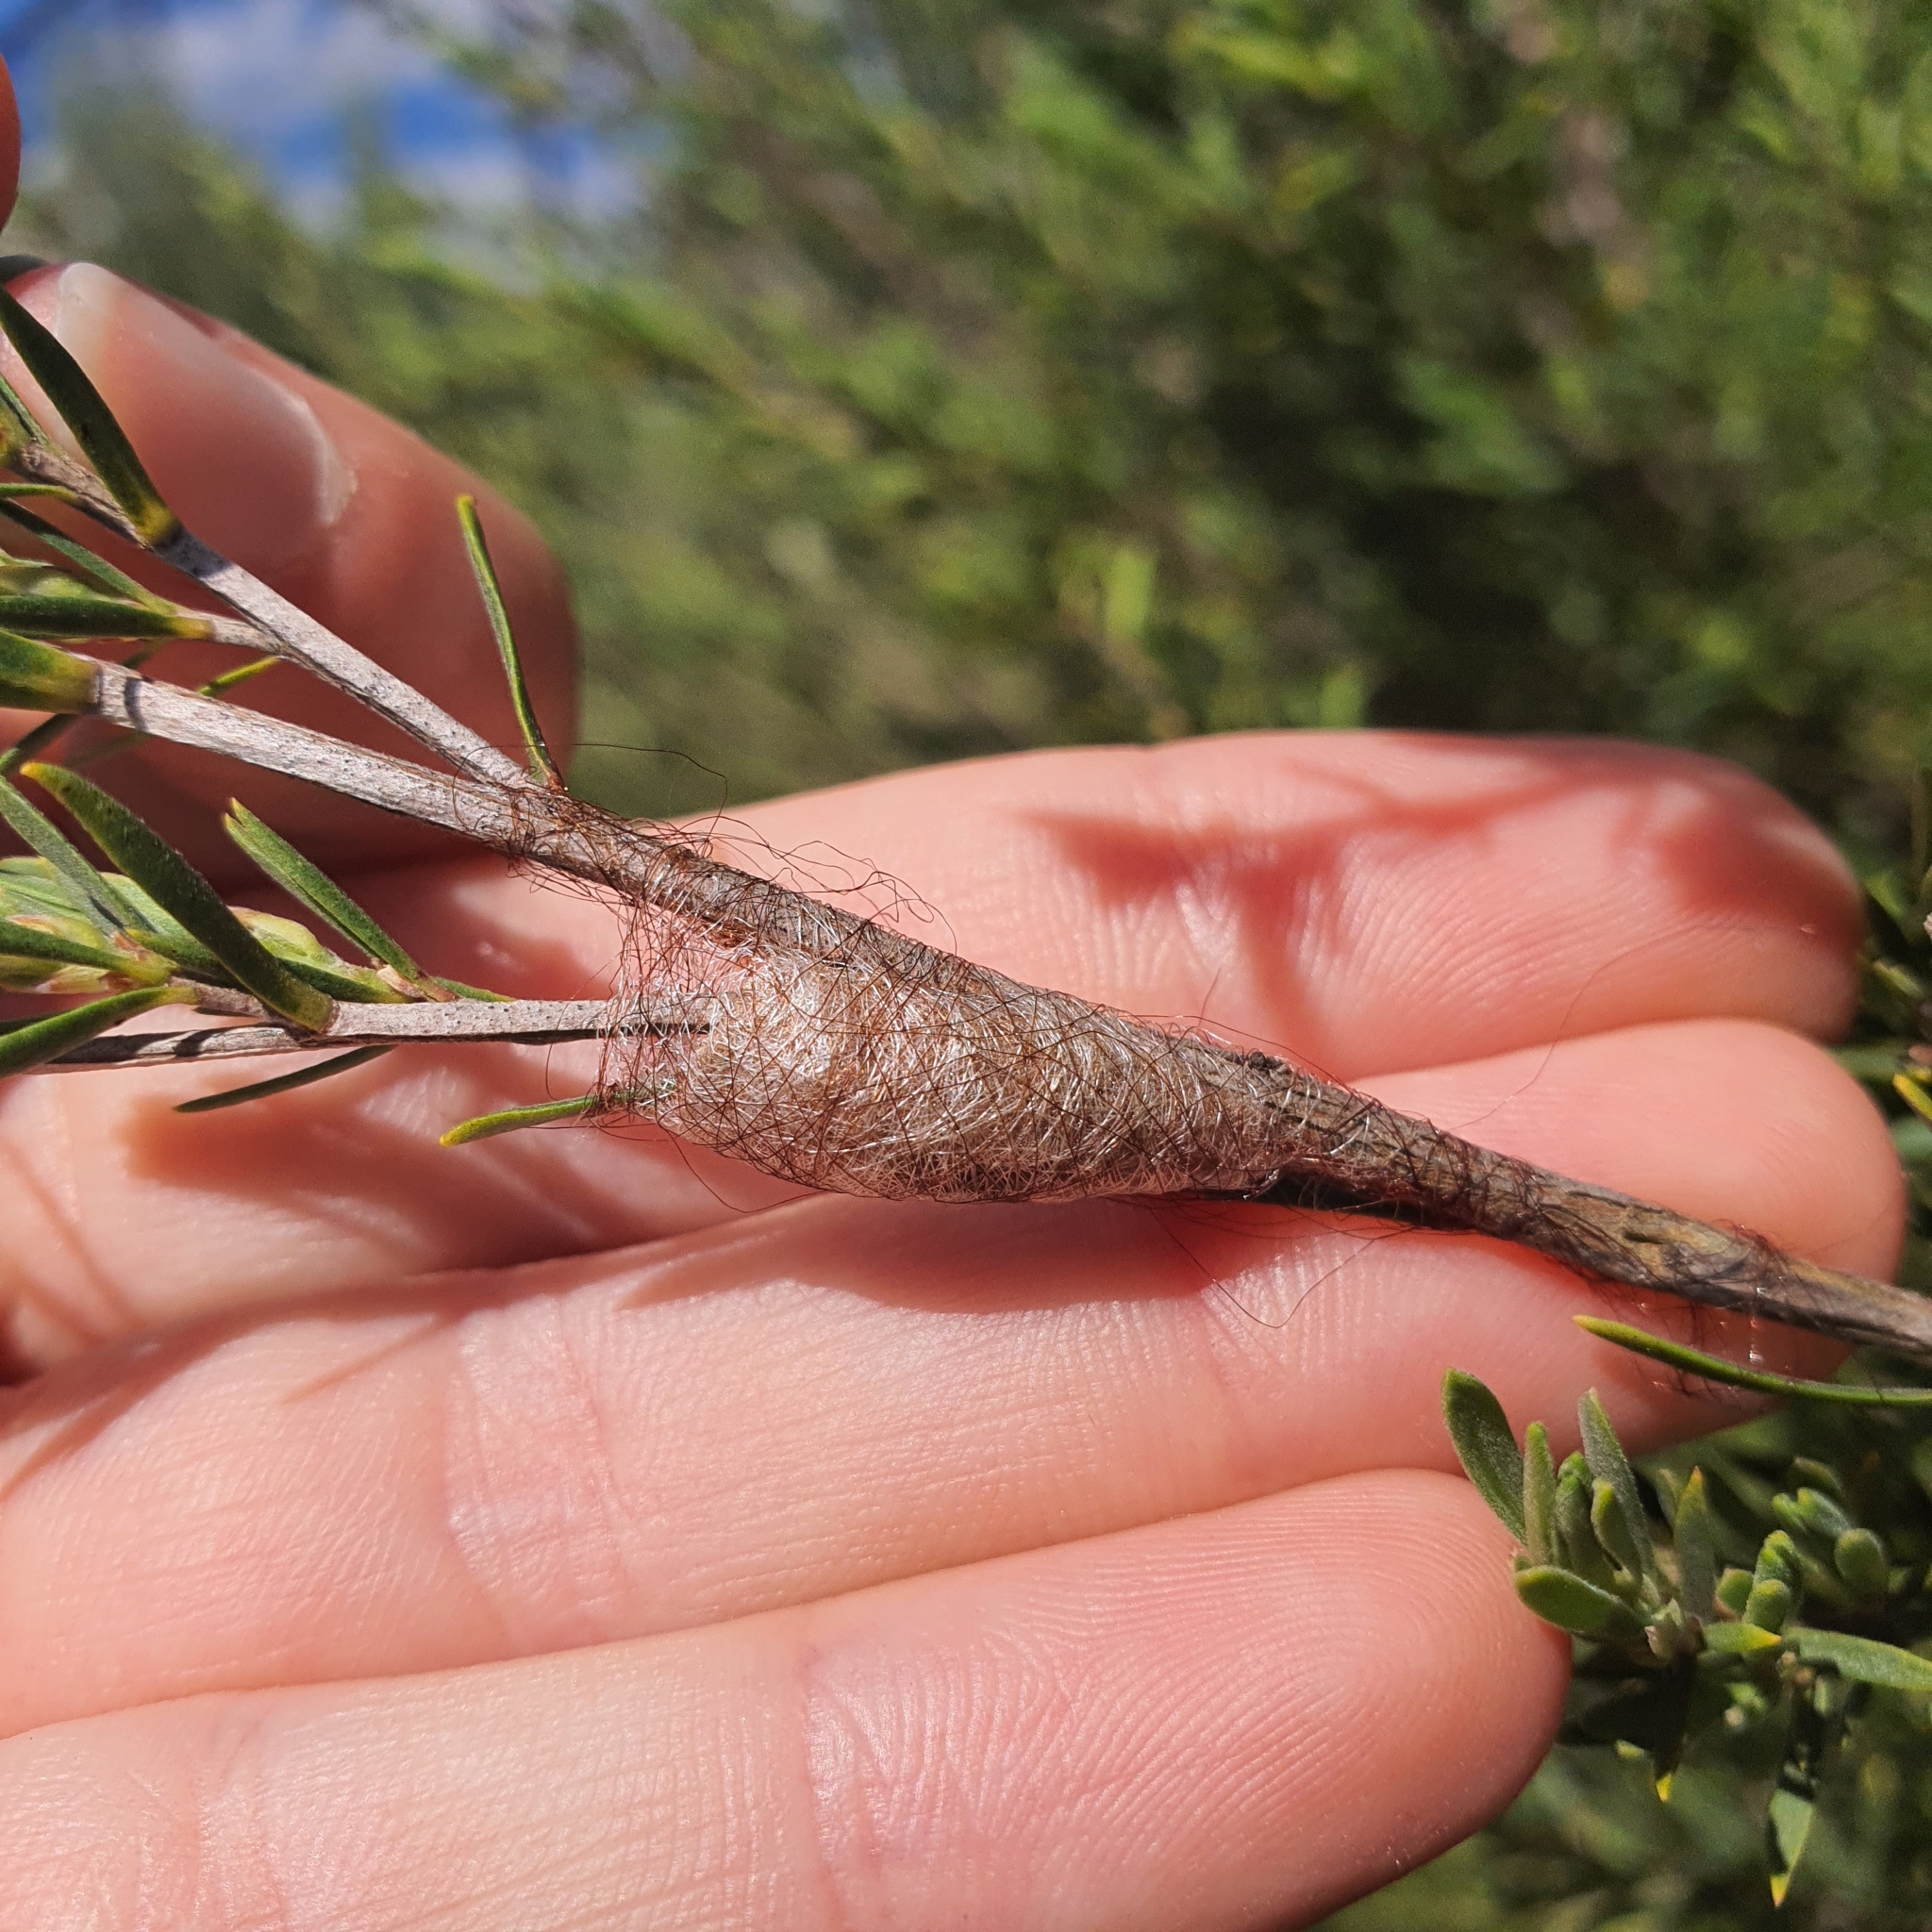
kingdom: Animalia
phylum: Arthropoda
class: Arachnida
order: Araneae
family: Araneidae
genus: Austracantha
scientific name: Austracantha minax
